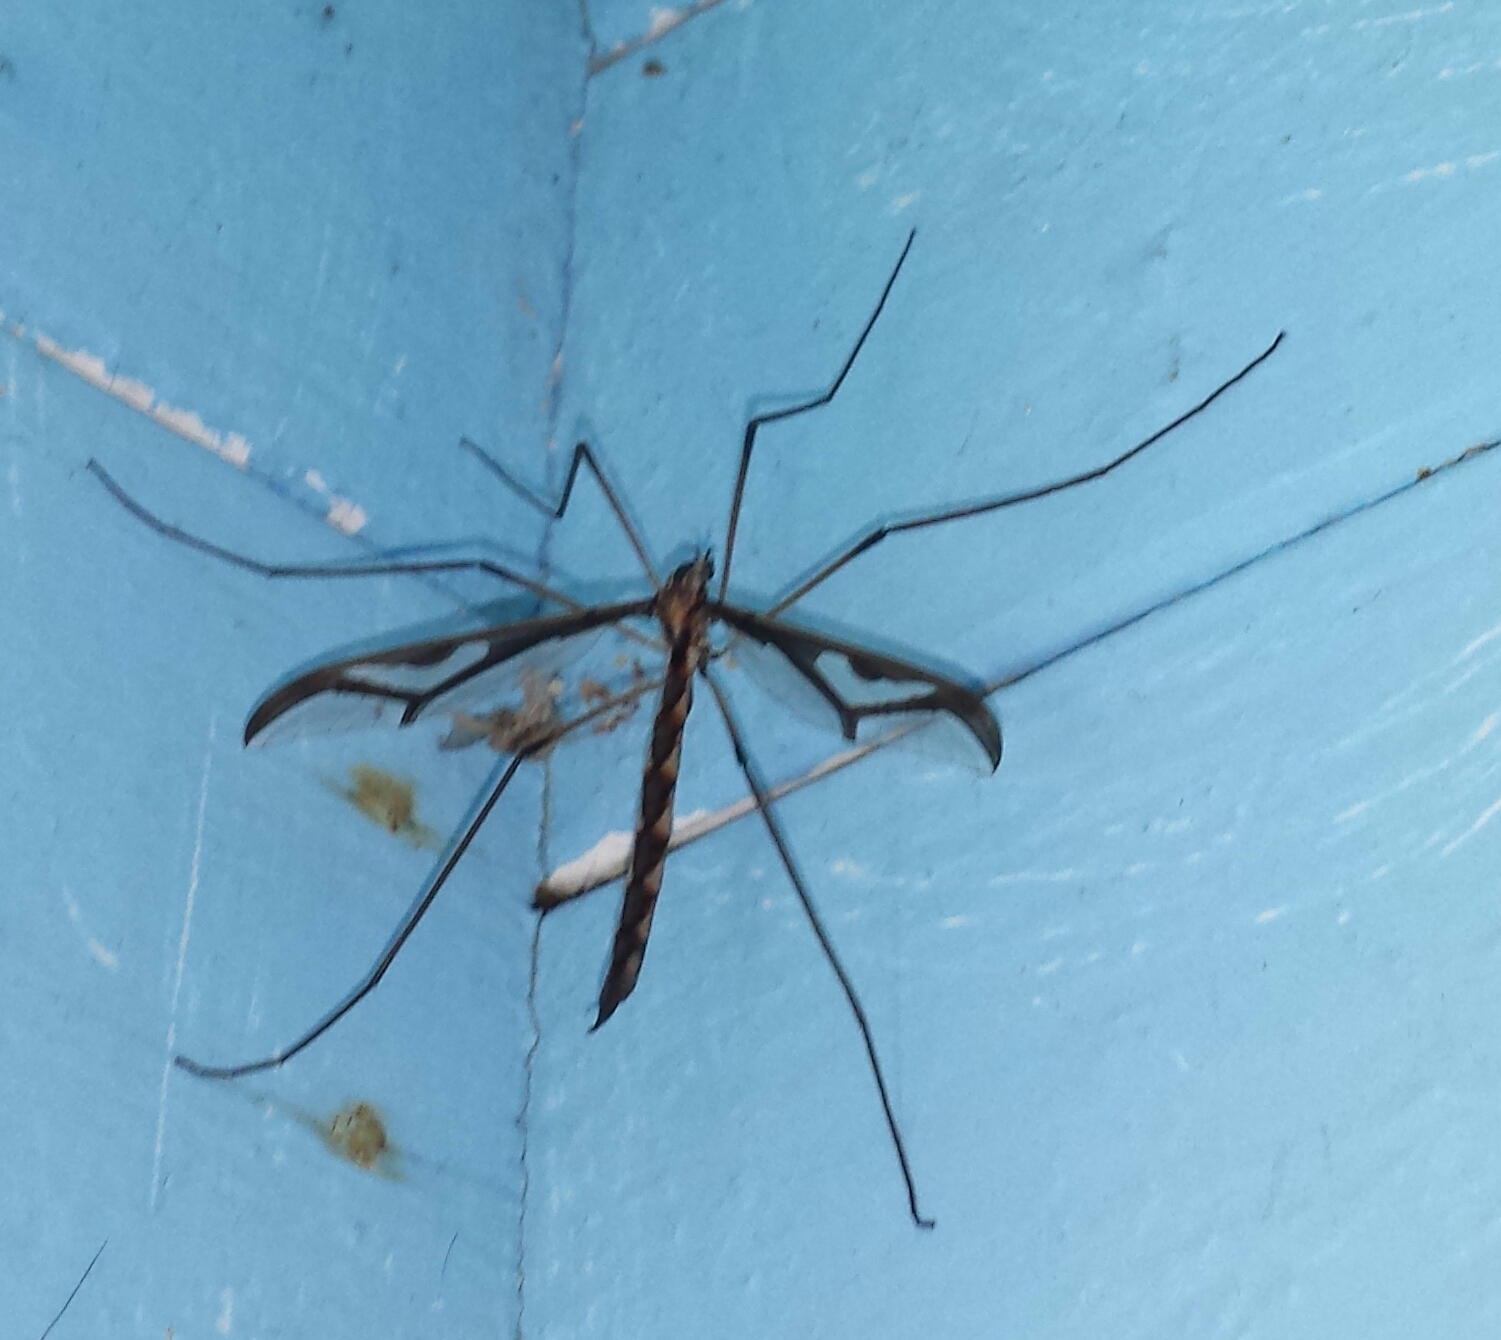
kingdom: Animalia
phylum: Arthropoda
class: Insecta
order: Diptera
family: Pediciidae
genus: Pedicia
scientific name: Pedicia albivitta
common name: Giant eastern crane fly
